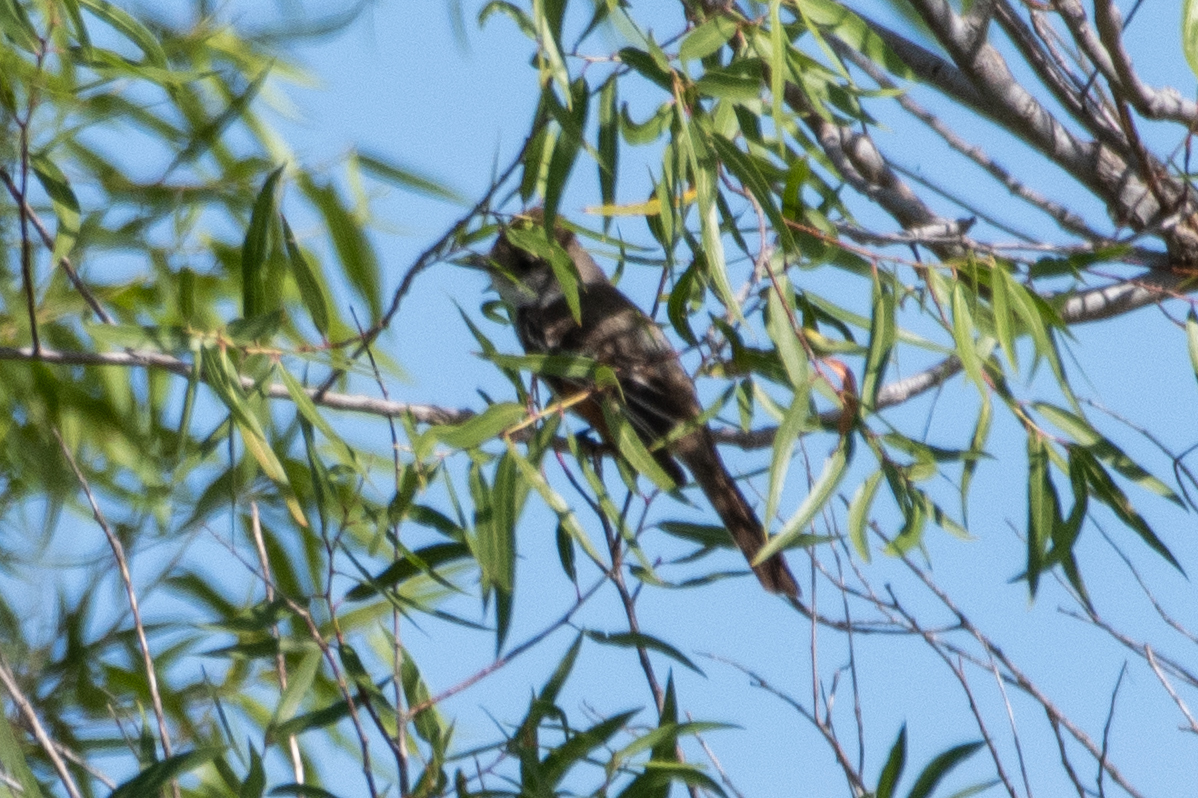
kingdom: Animalia
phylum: Chordata
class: Aves
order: Passeriformes
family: Tyrannidae
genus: Myiarchus
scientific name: Myiarchus cinerascens
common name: Ash-throated flycatcher
